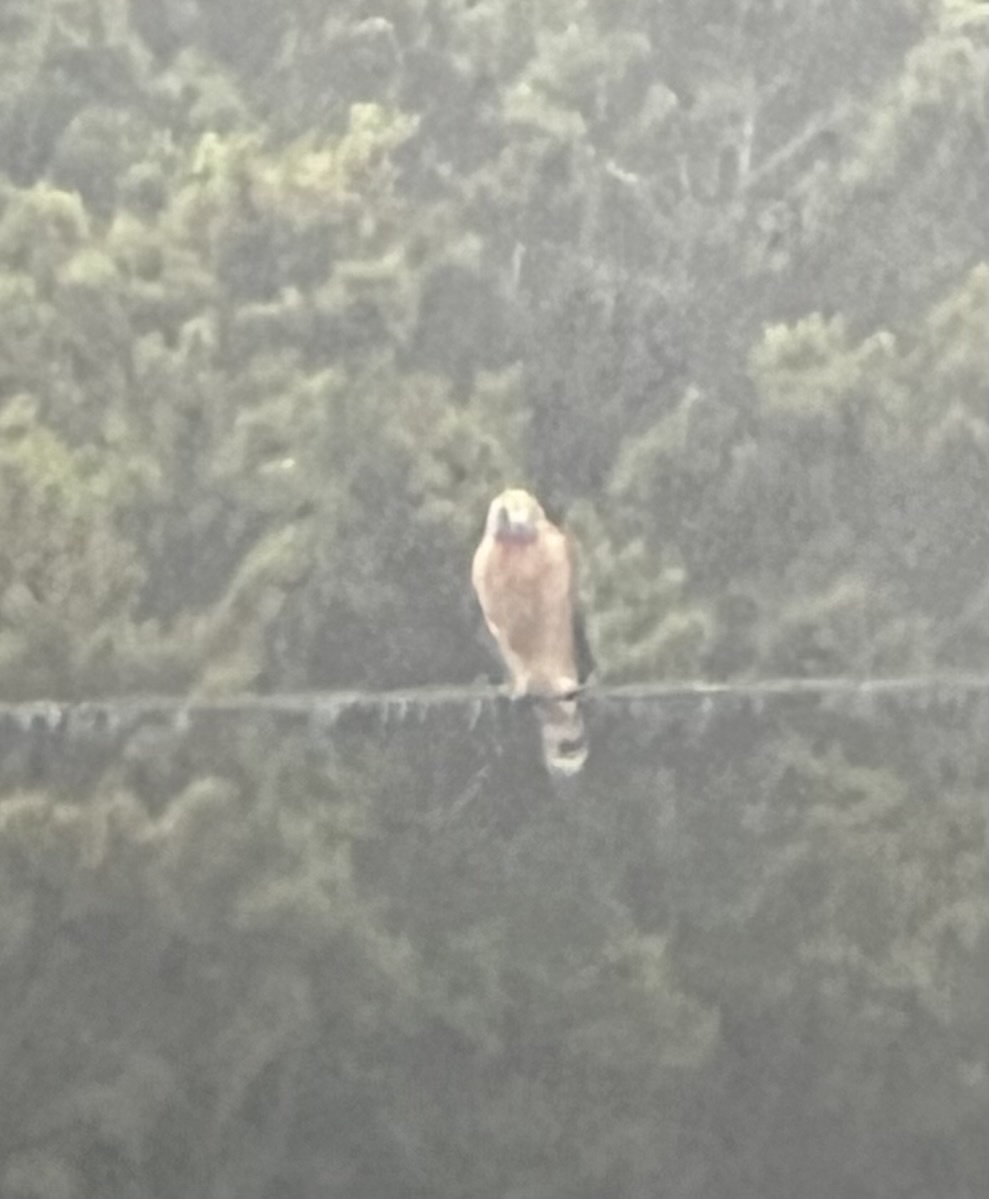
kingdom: Animalia
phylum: Chordata
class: Aves
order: Accipitriformes
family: Accipitridae
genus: Buteo
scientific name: Buteo lineatus
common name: Red-shouldered hawk
